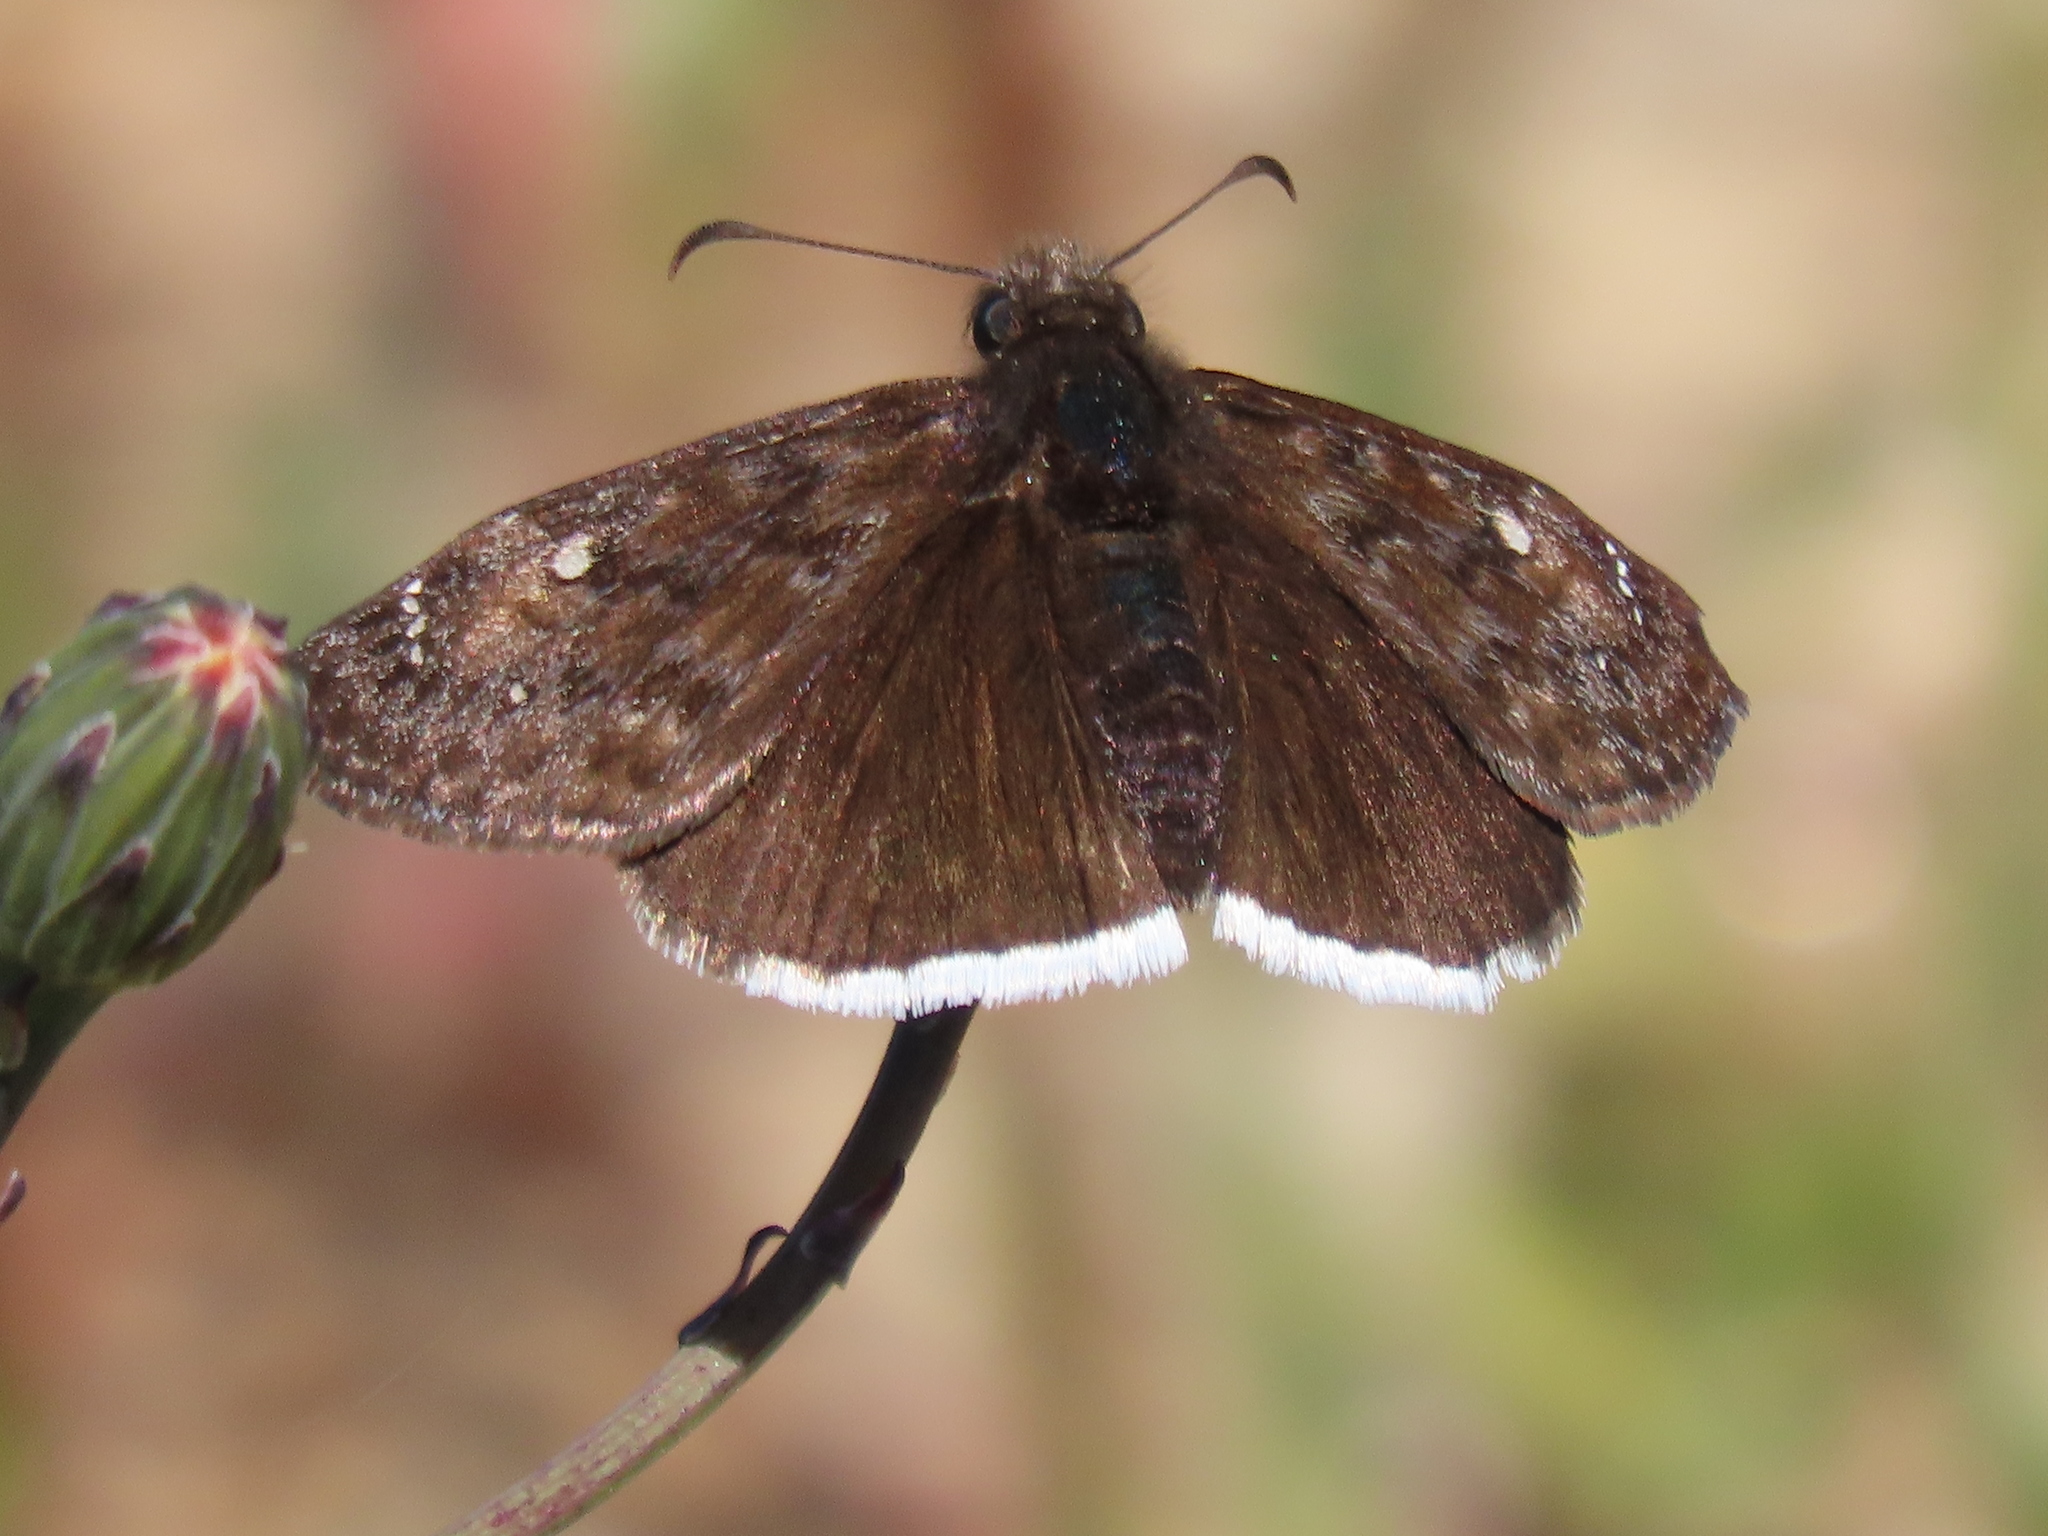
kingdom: Animalia
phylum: Arthropoda
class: Insecta
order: Lepidoptera
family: Hesperiidae
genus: Erynnis
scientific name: Erynnis tristis
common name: Mournful duskywing
